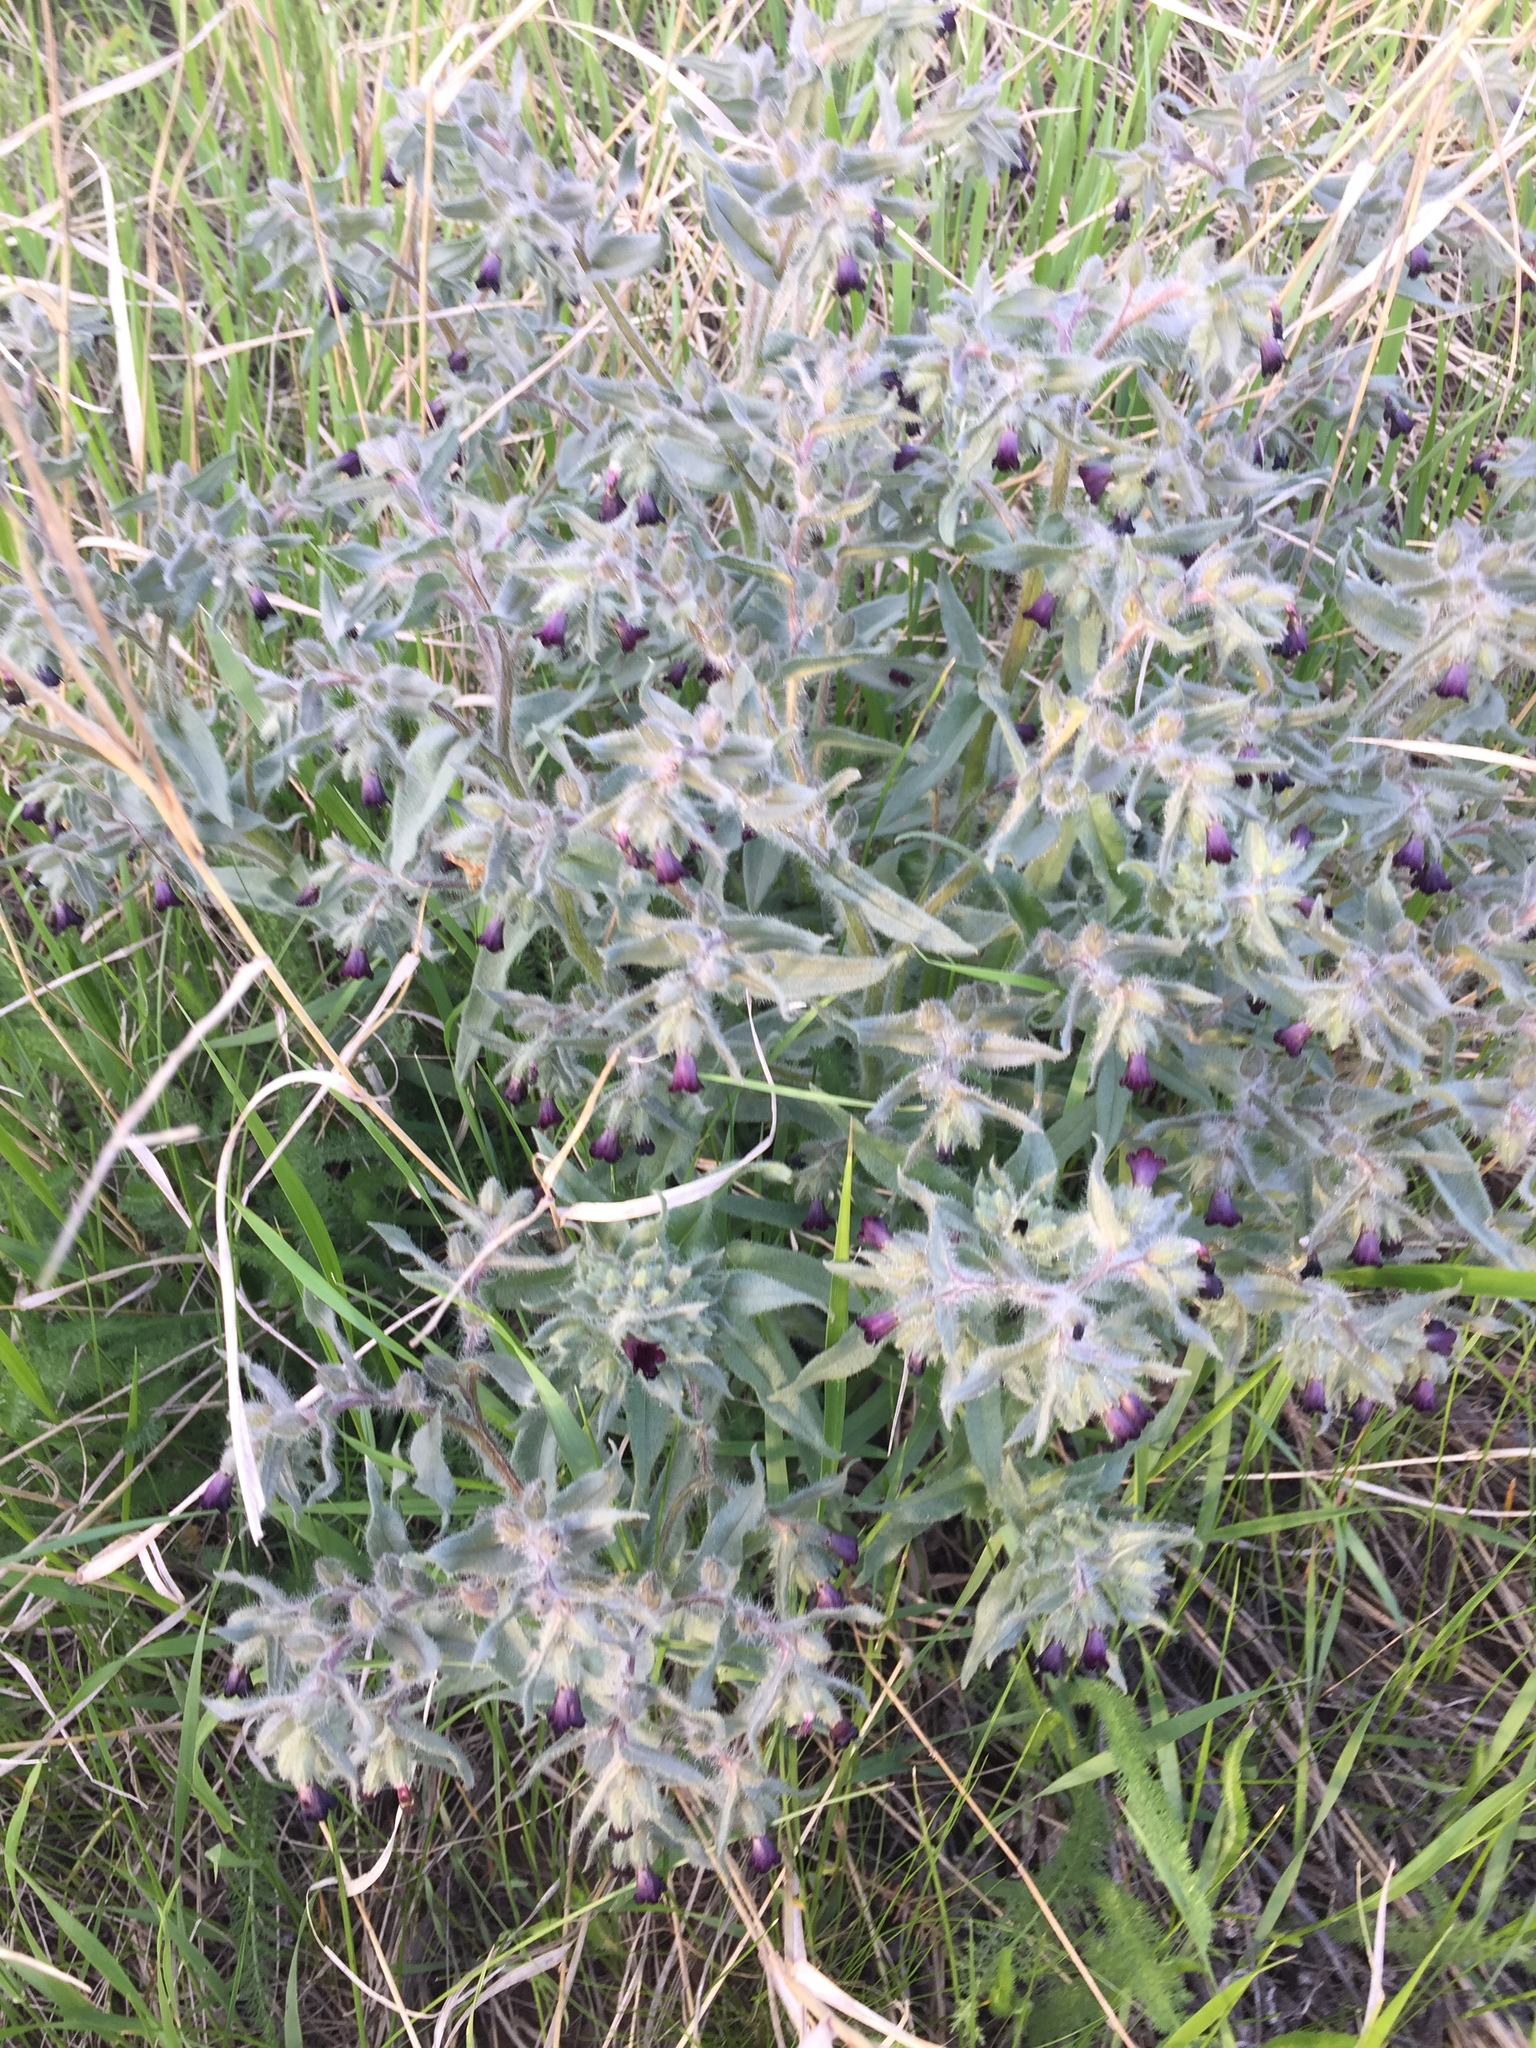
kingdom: Plantae
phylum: Tracheophyta
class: Magnoliopsida
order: Boraginales
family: Boraginaceae
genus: Nonea
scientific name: Nonea pulla
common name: Brown nonea
